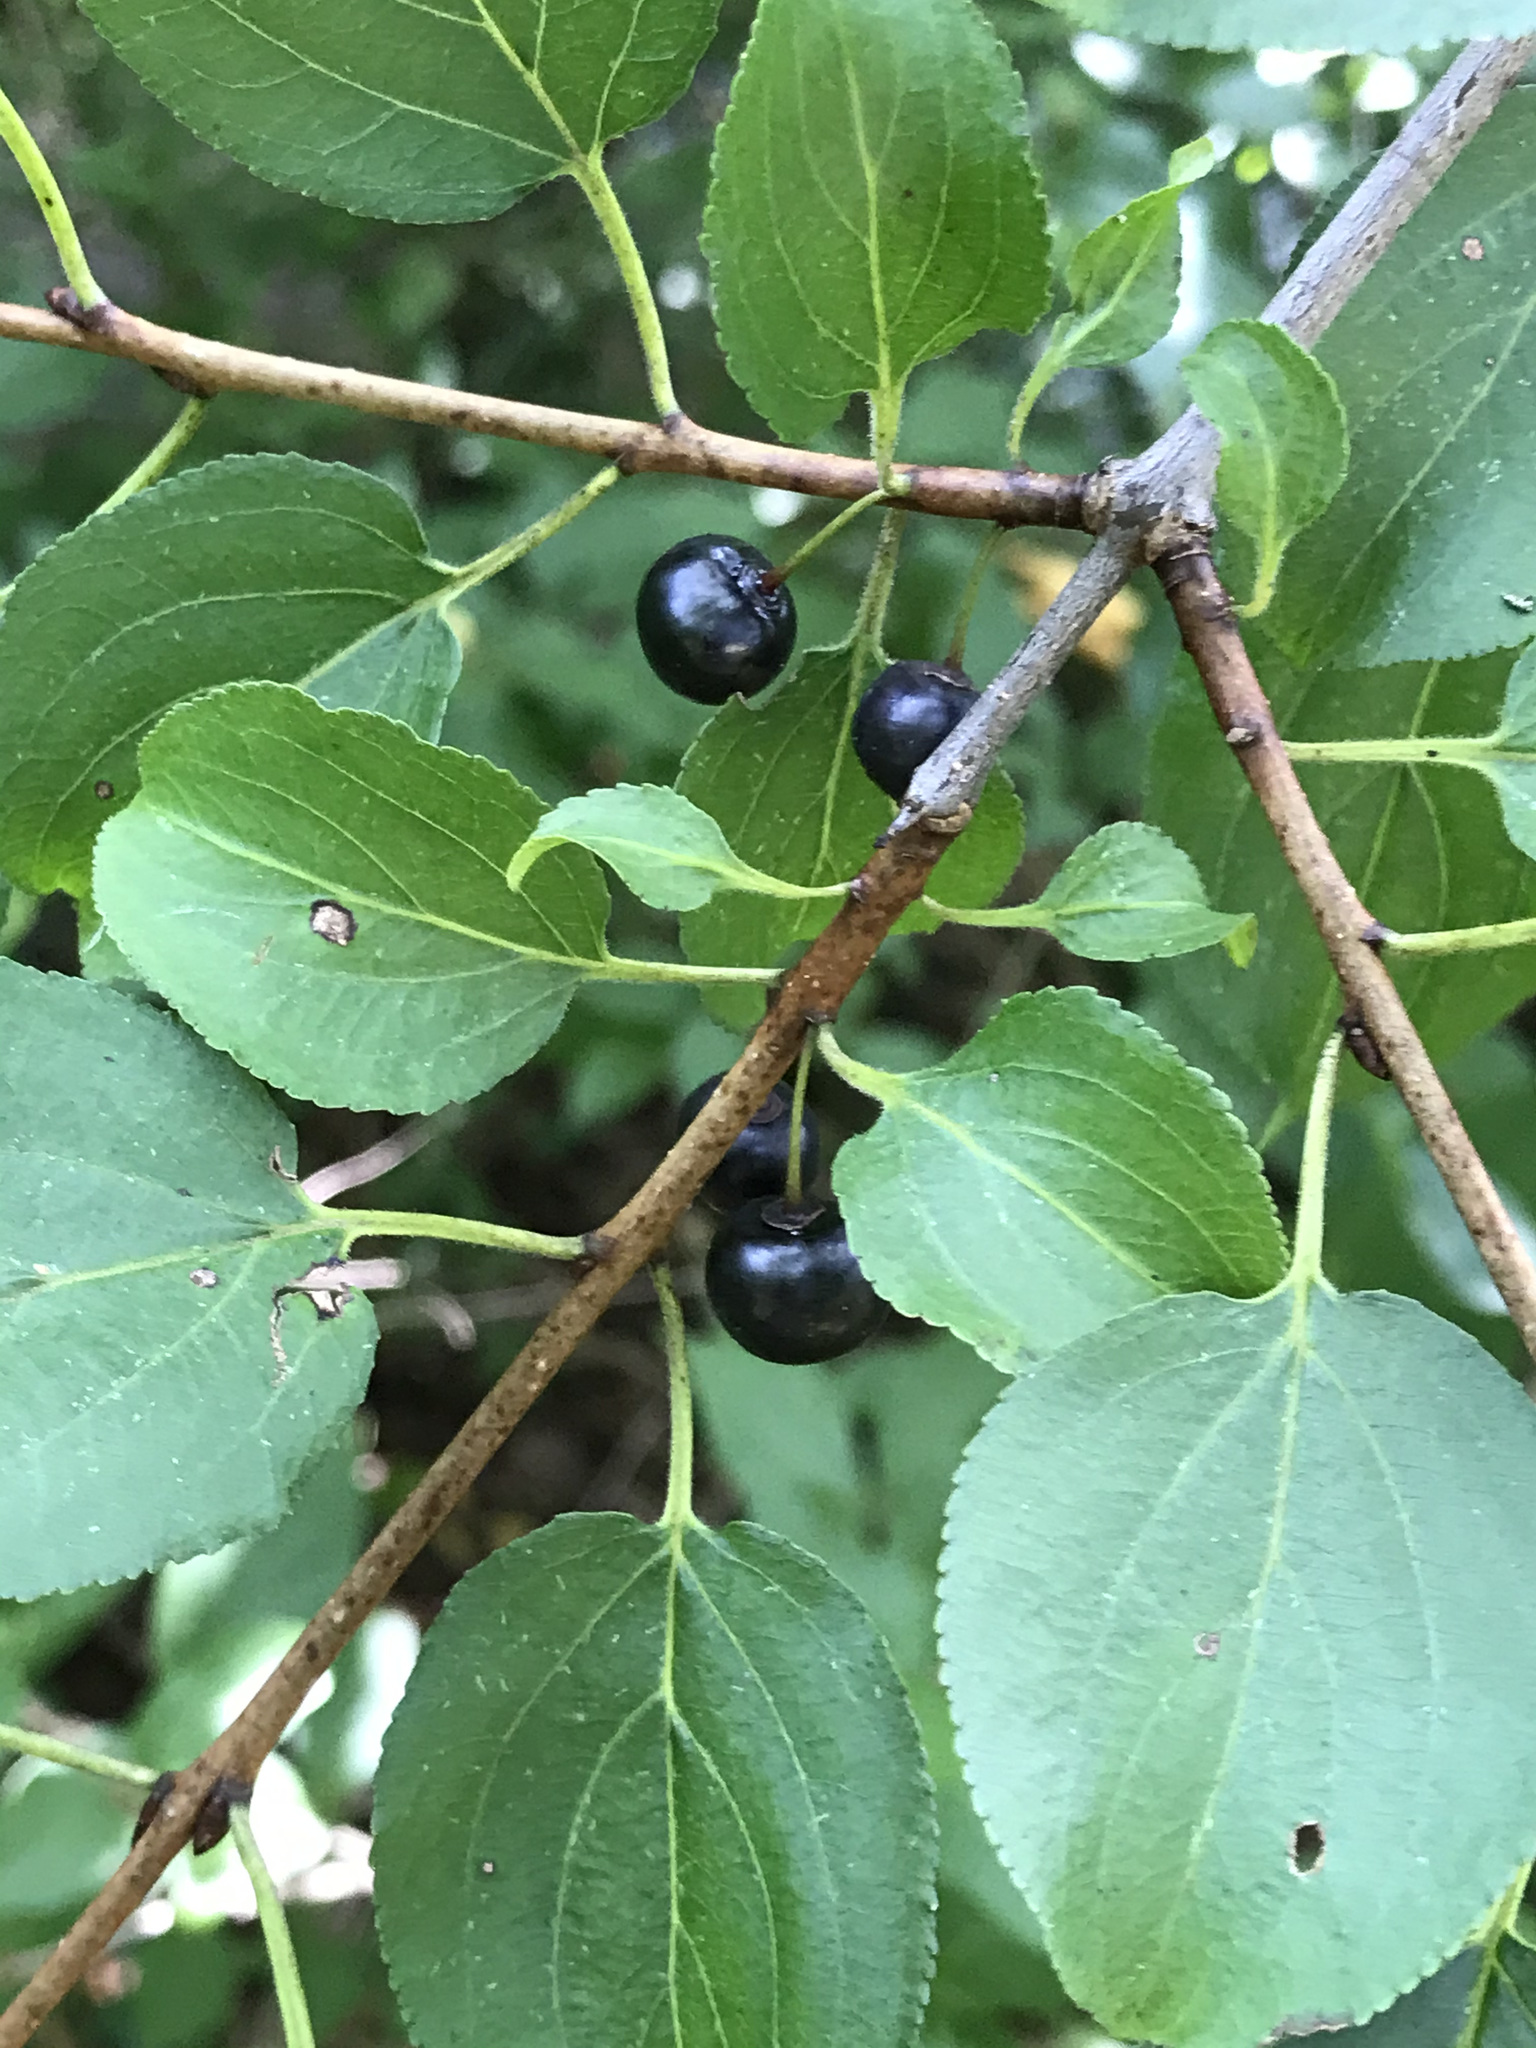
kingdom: Plantae
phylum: Tracheophyta
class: Magnoliopsida
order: Rosales
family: Rhamnaceae
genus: Rhamnus
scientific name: Rhamnus cathartica
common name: Common buckthorn
